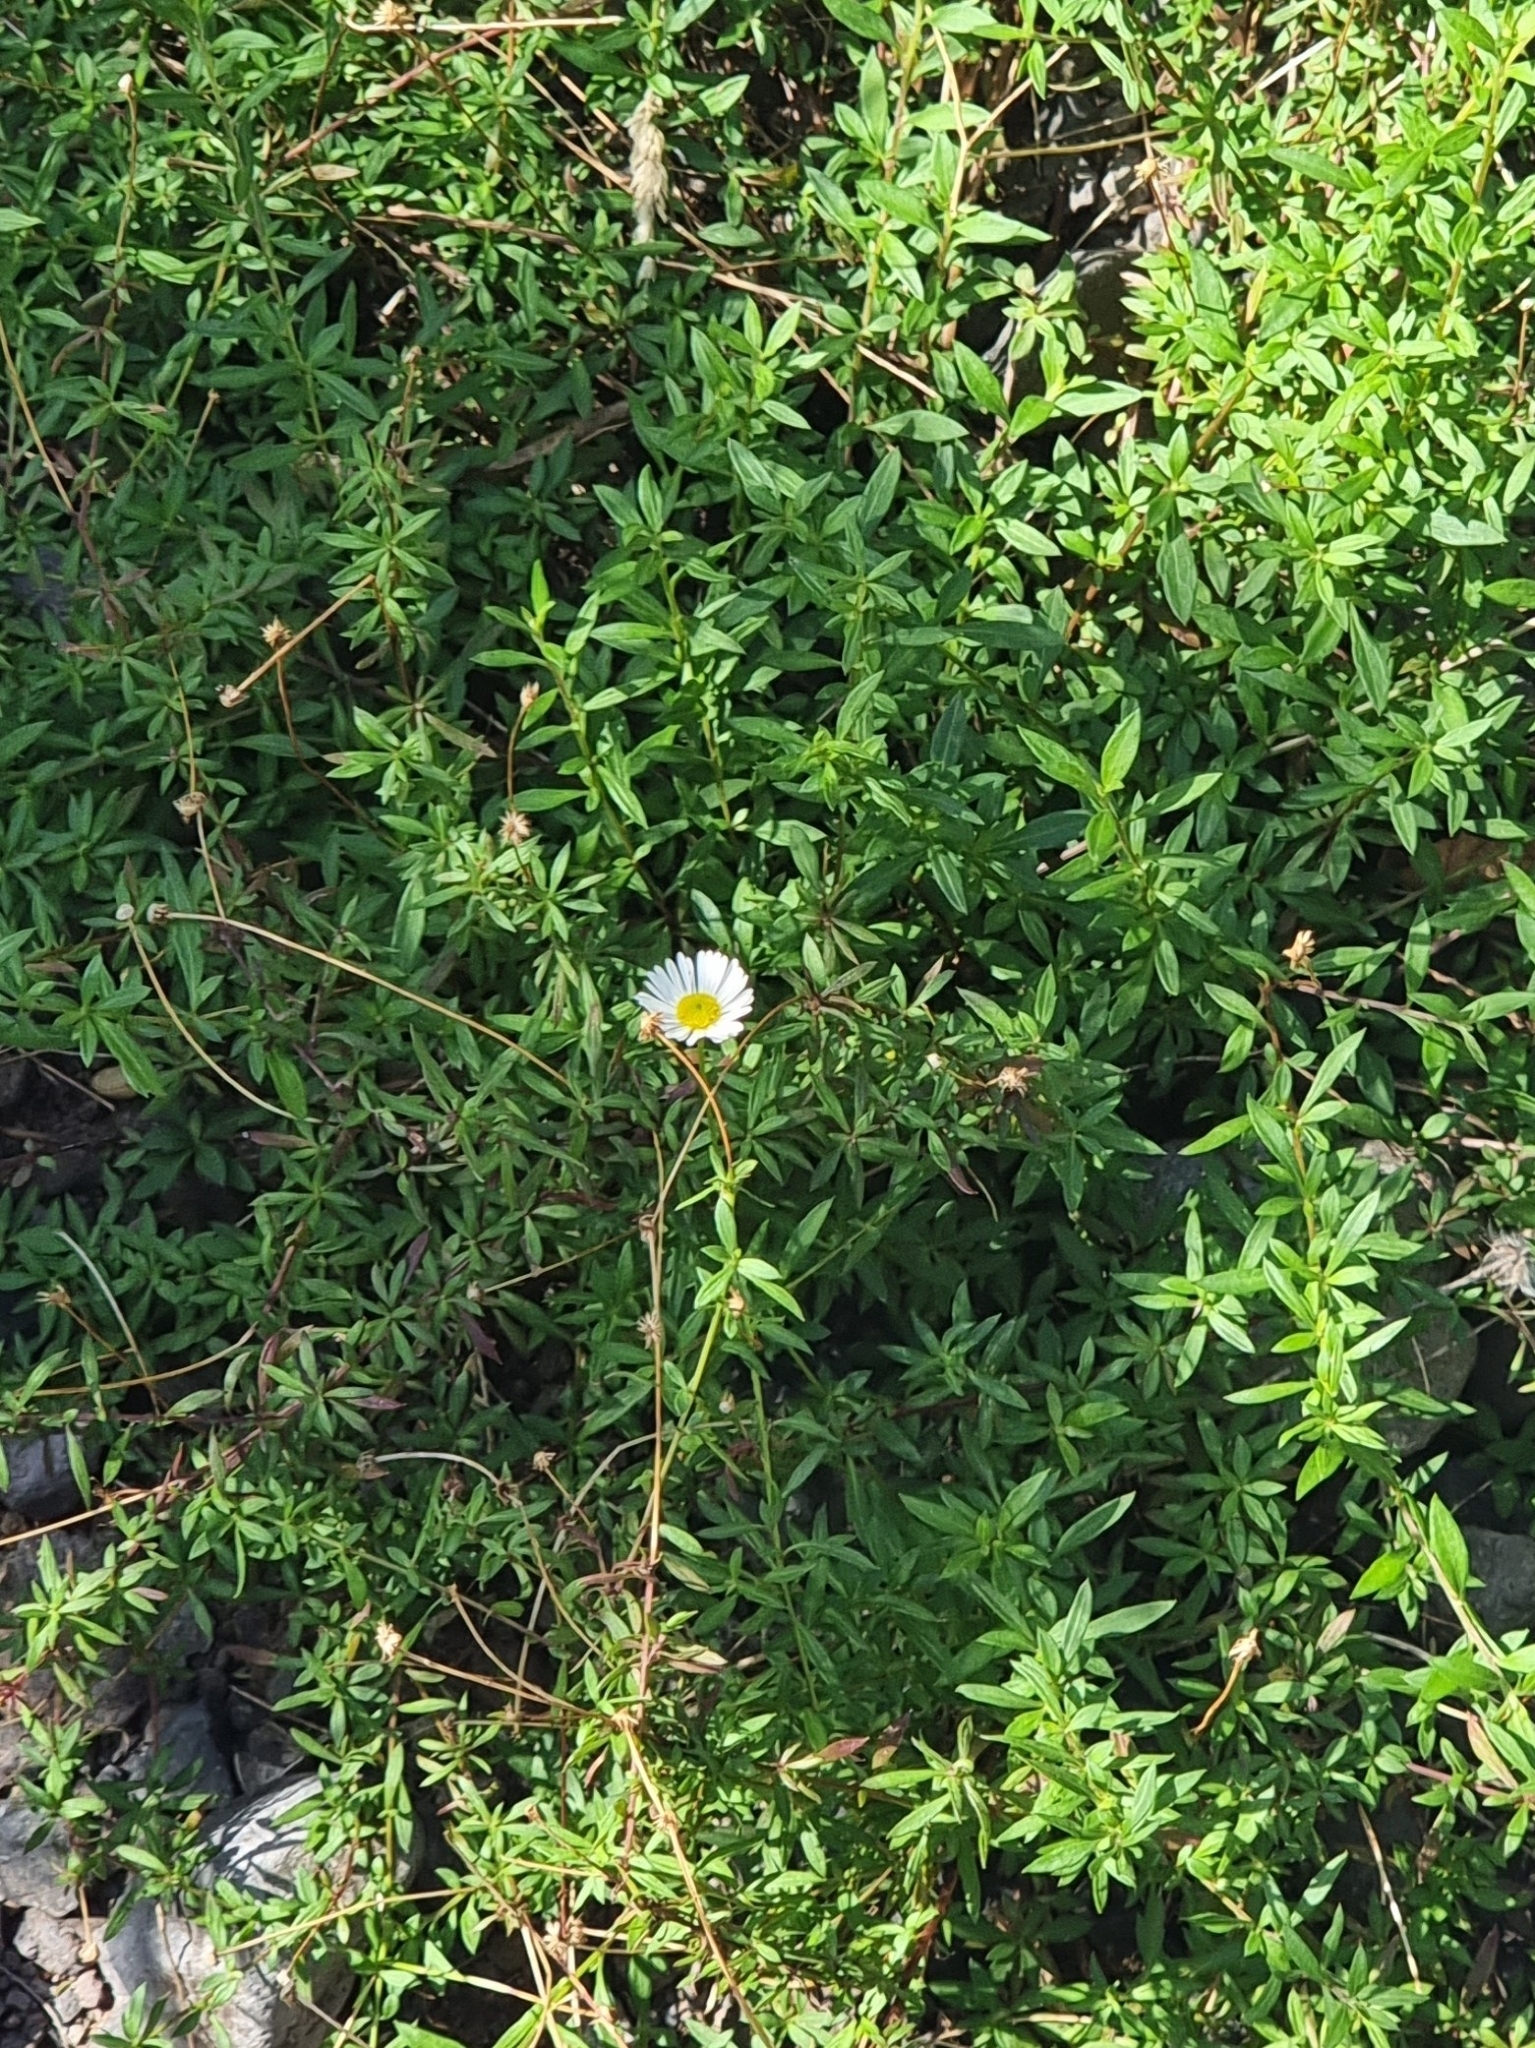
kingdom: Plantae
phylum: Tracheophyta
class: Magnoliopsida
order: Asterales
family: Asteraceae
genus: Erigeron
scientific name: Erigeron karvinskianus
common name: Mexican fleabane
